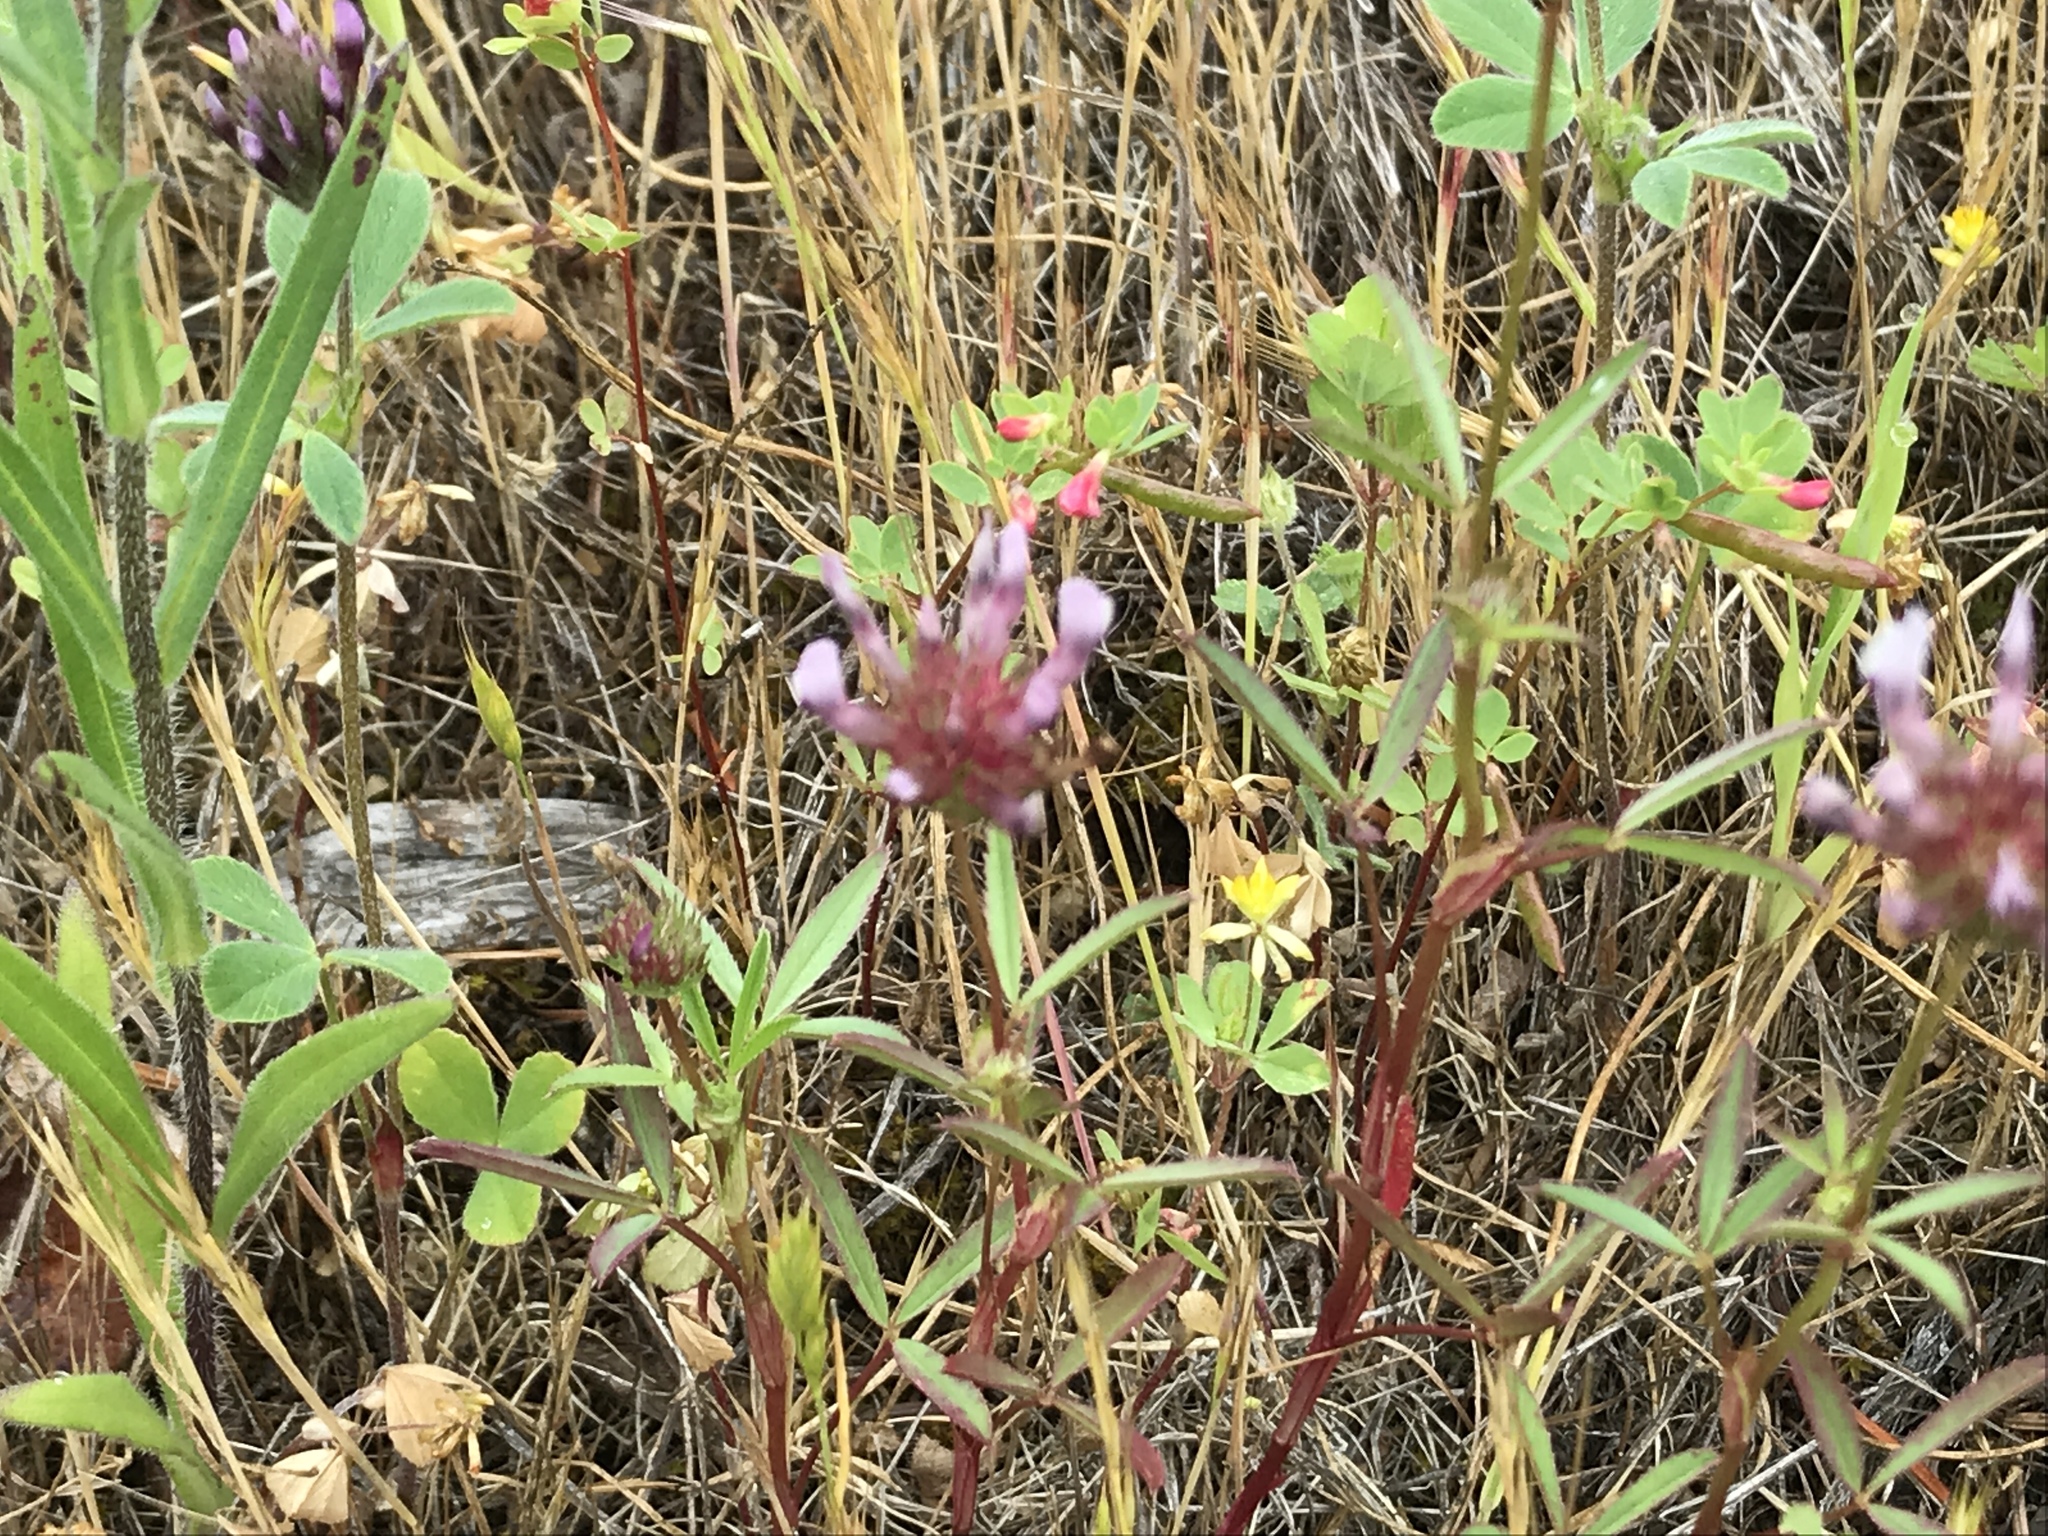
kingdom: Plantae
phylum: Tracheophyta
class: Magnoliopsida
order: Fabales
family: Fabaceae
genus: Trifolium
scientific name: Trifolium willdenovii
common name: Tomcat clover
